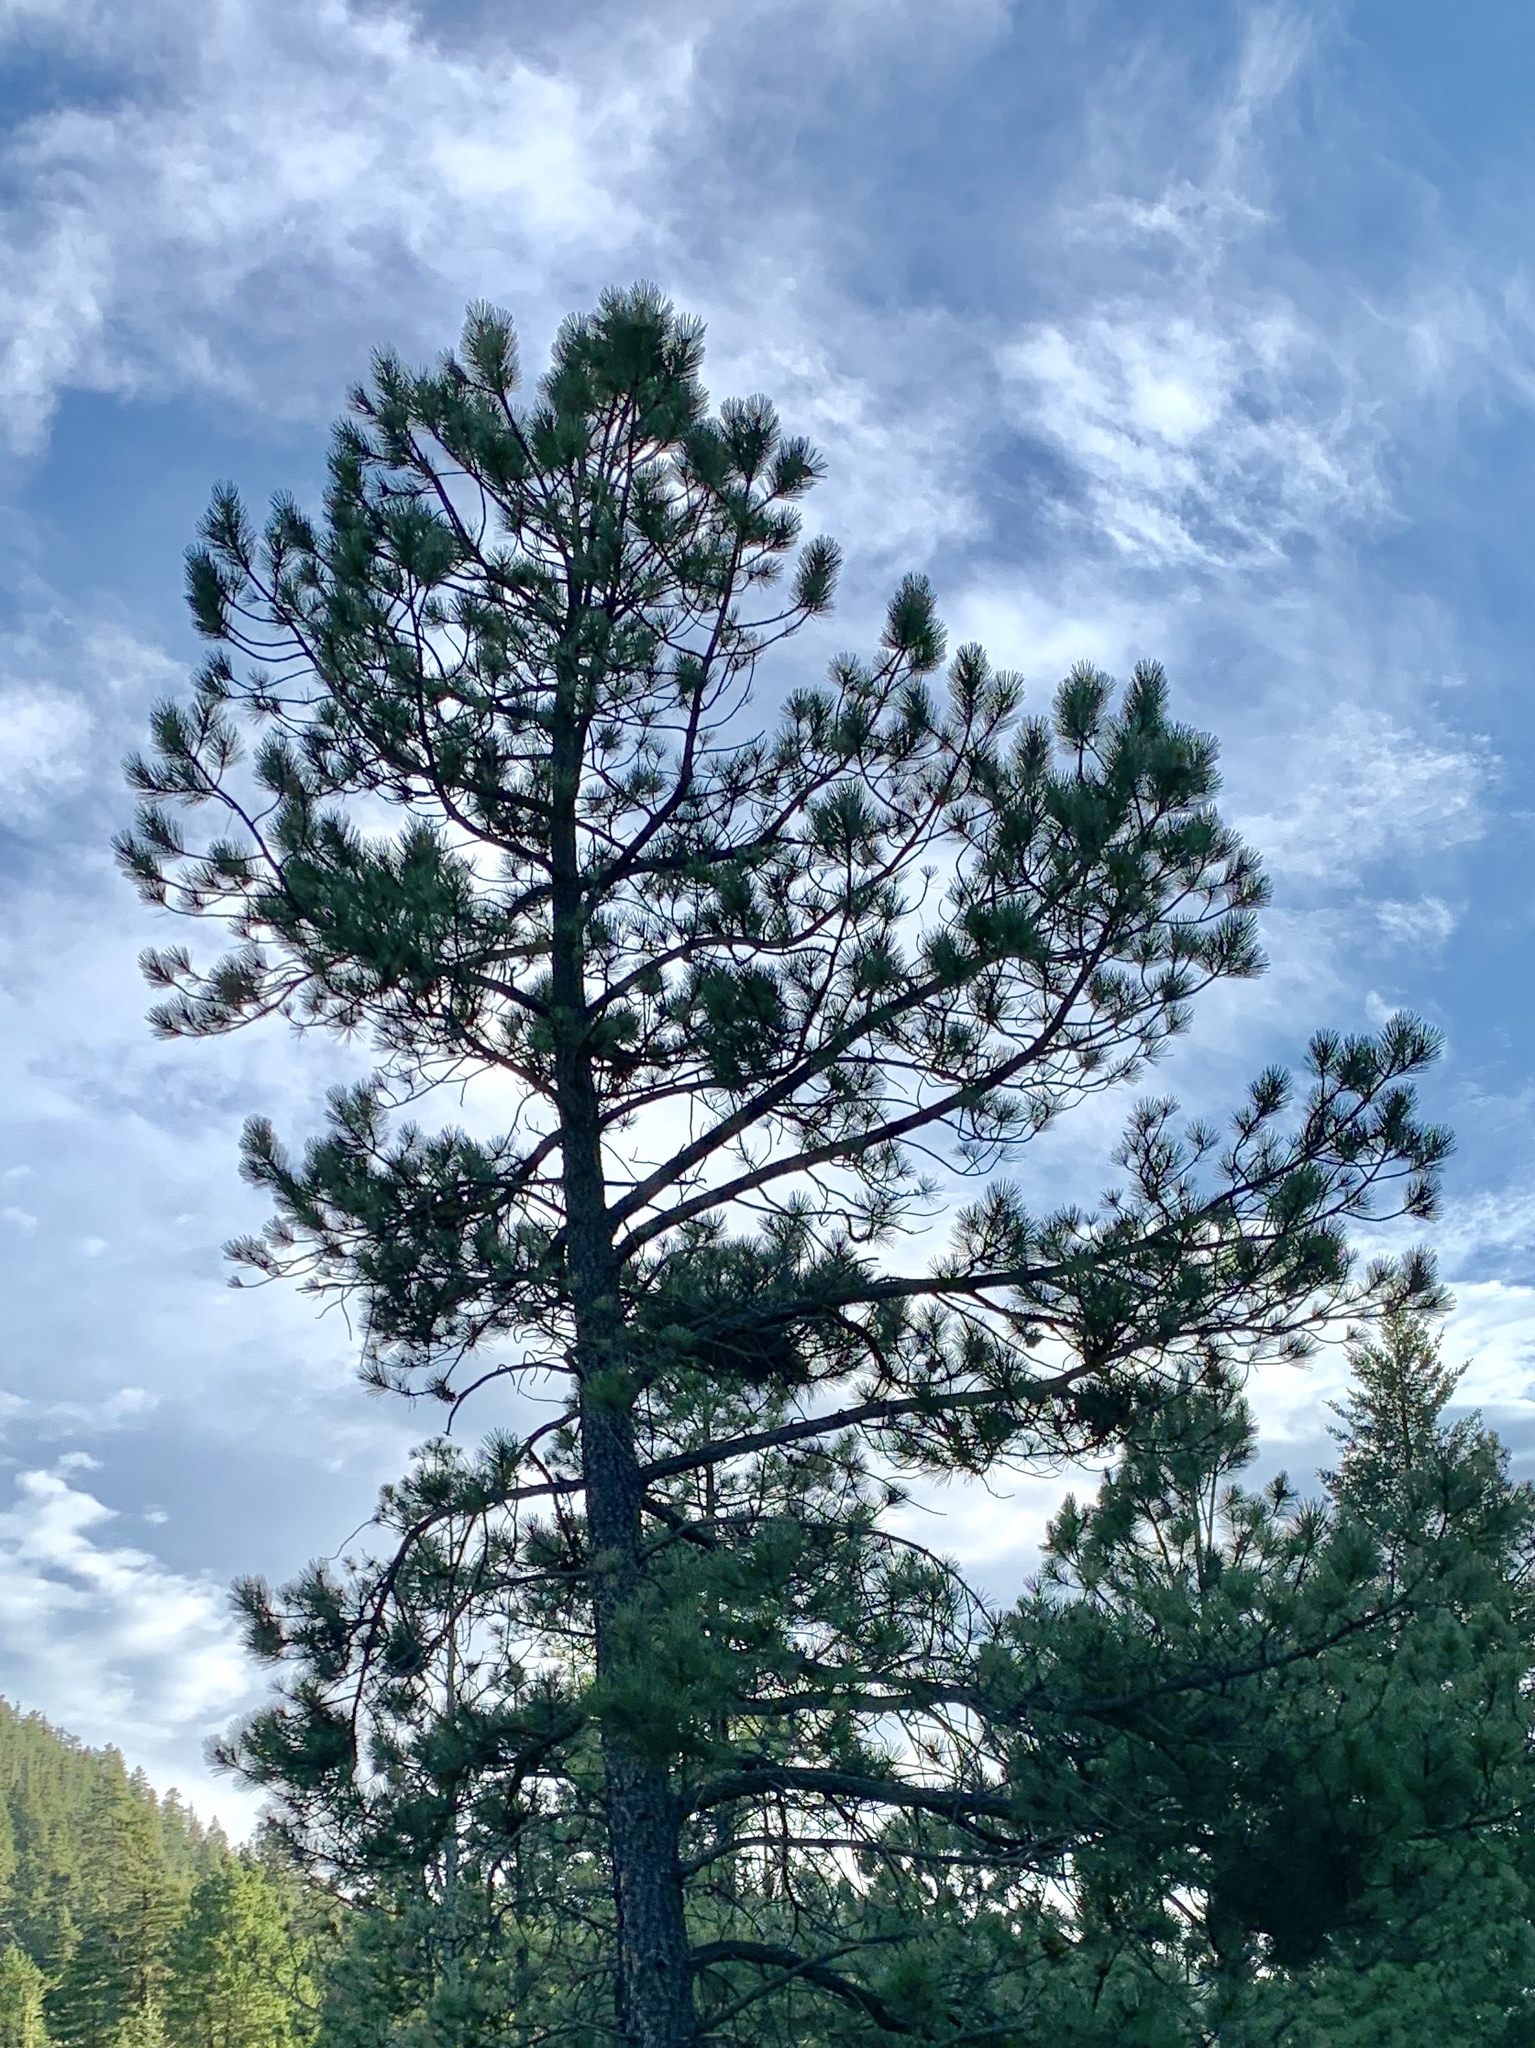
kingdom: Plantae
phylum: Tracheophyta
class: Pinopsida
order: Pinales
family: Pinaceae
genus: Pinus
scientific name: Pinus ponderosa
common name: Western yellow-pine
